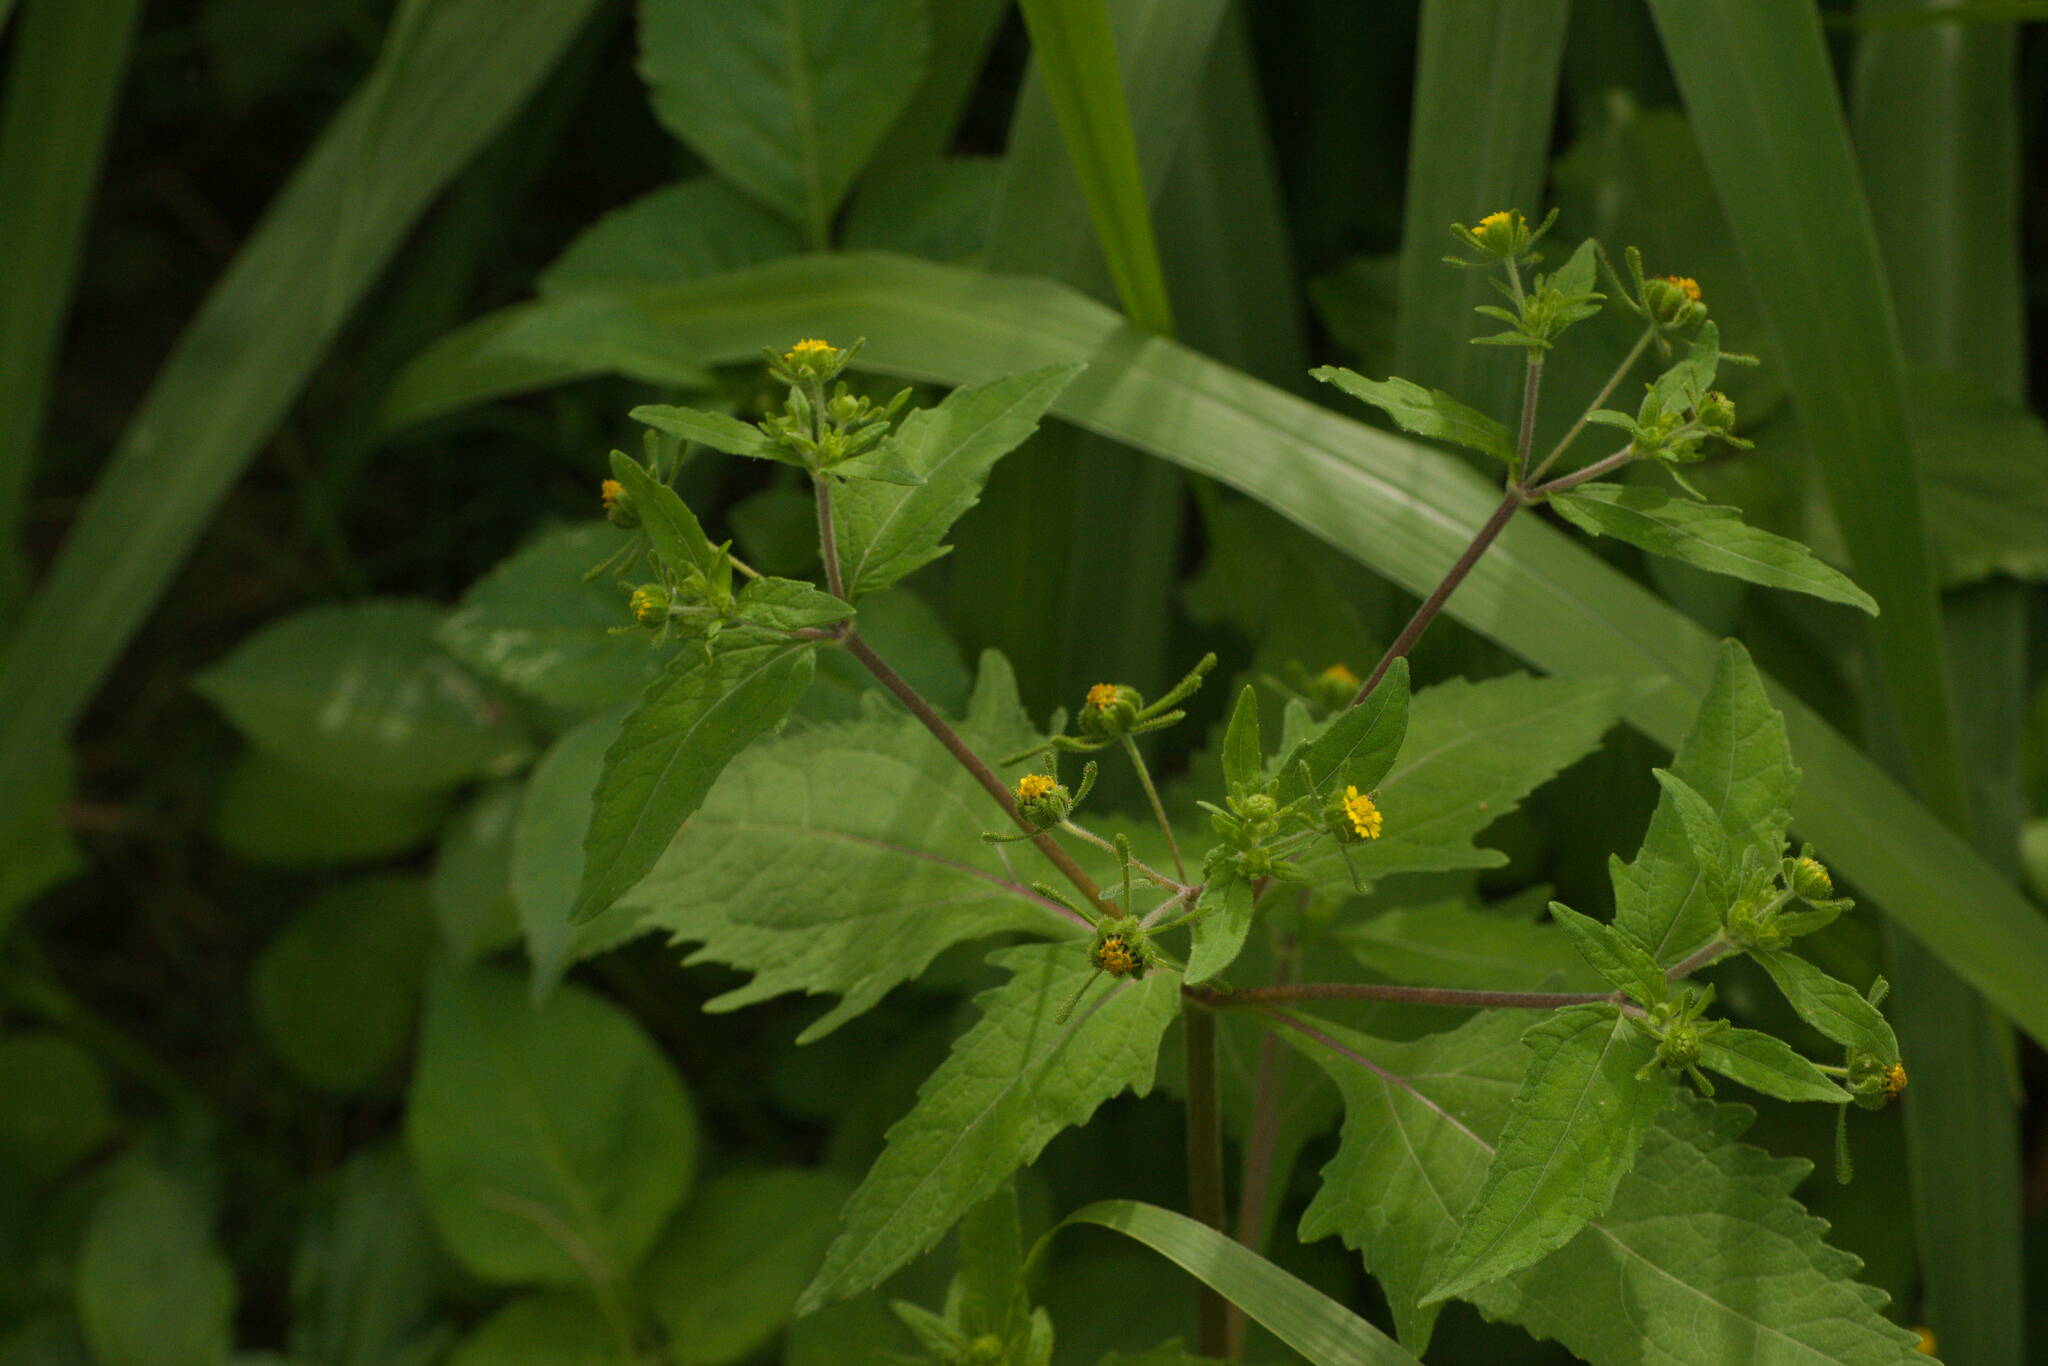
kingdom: Plantae
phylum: Tracheophyta
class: Magnoliopsida
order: Asterales
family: Asteraceae
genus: Sigesbeckia
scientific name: Sigesbeckia orientalis
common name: Eastern st paul's-wort
